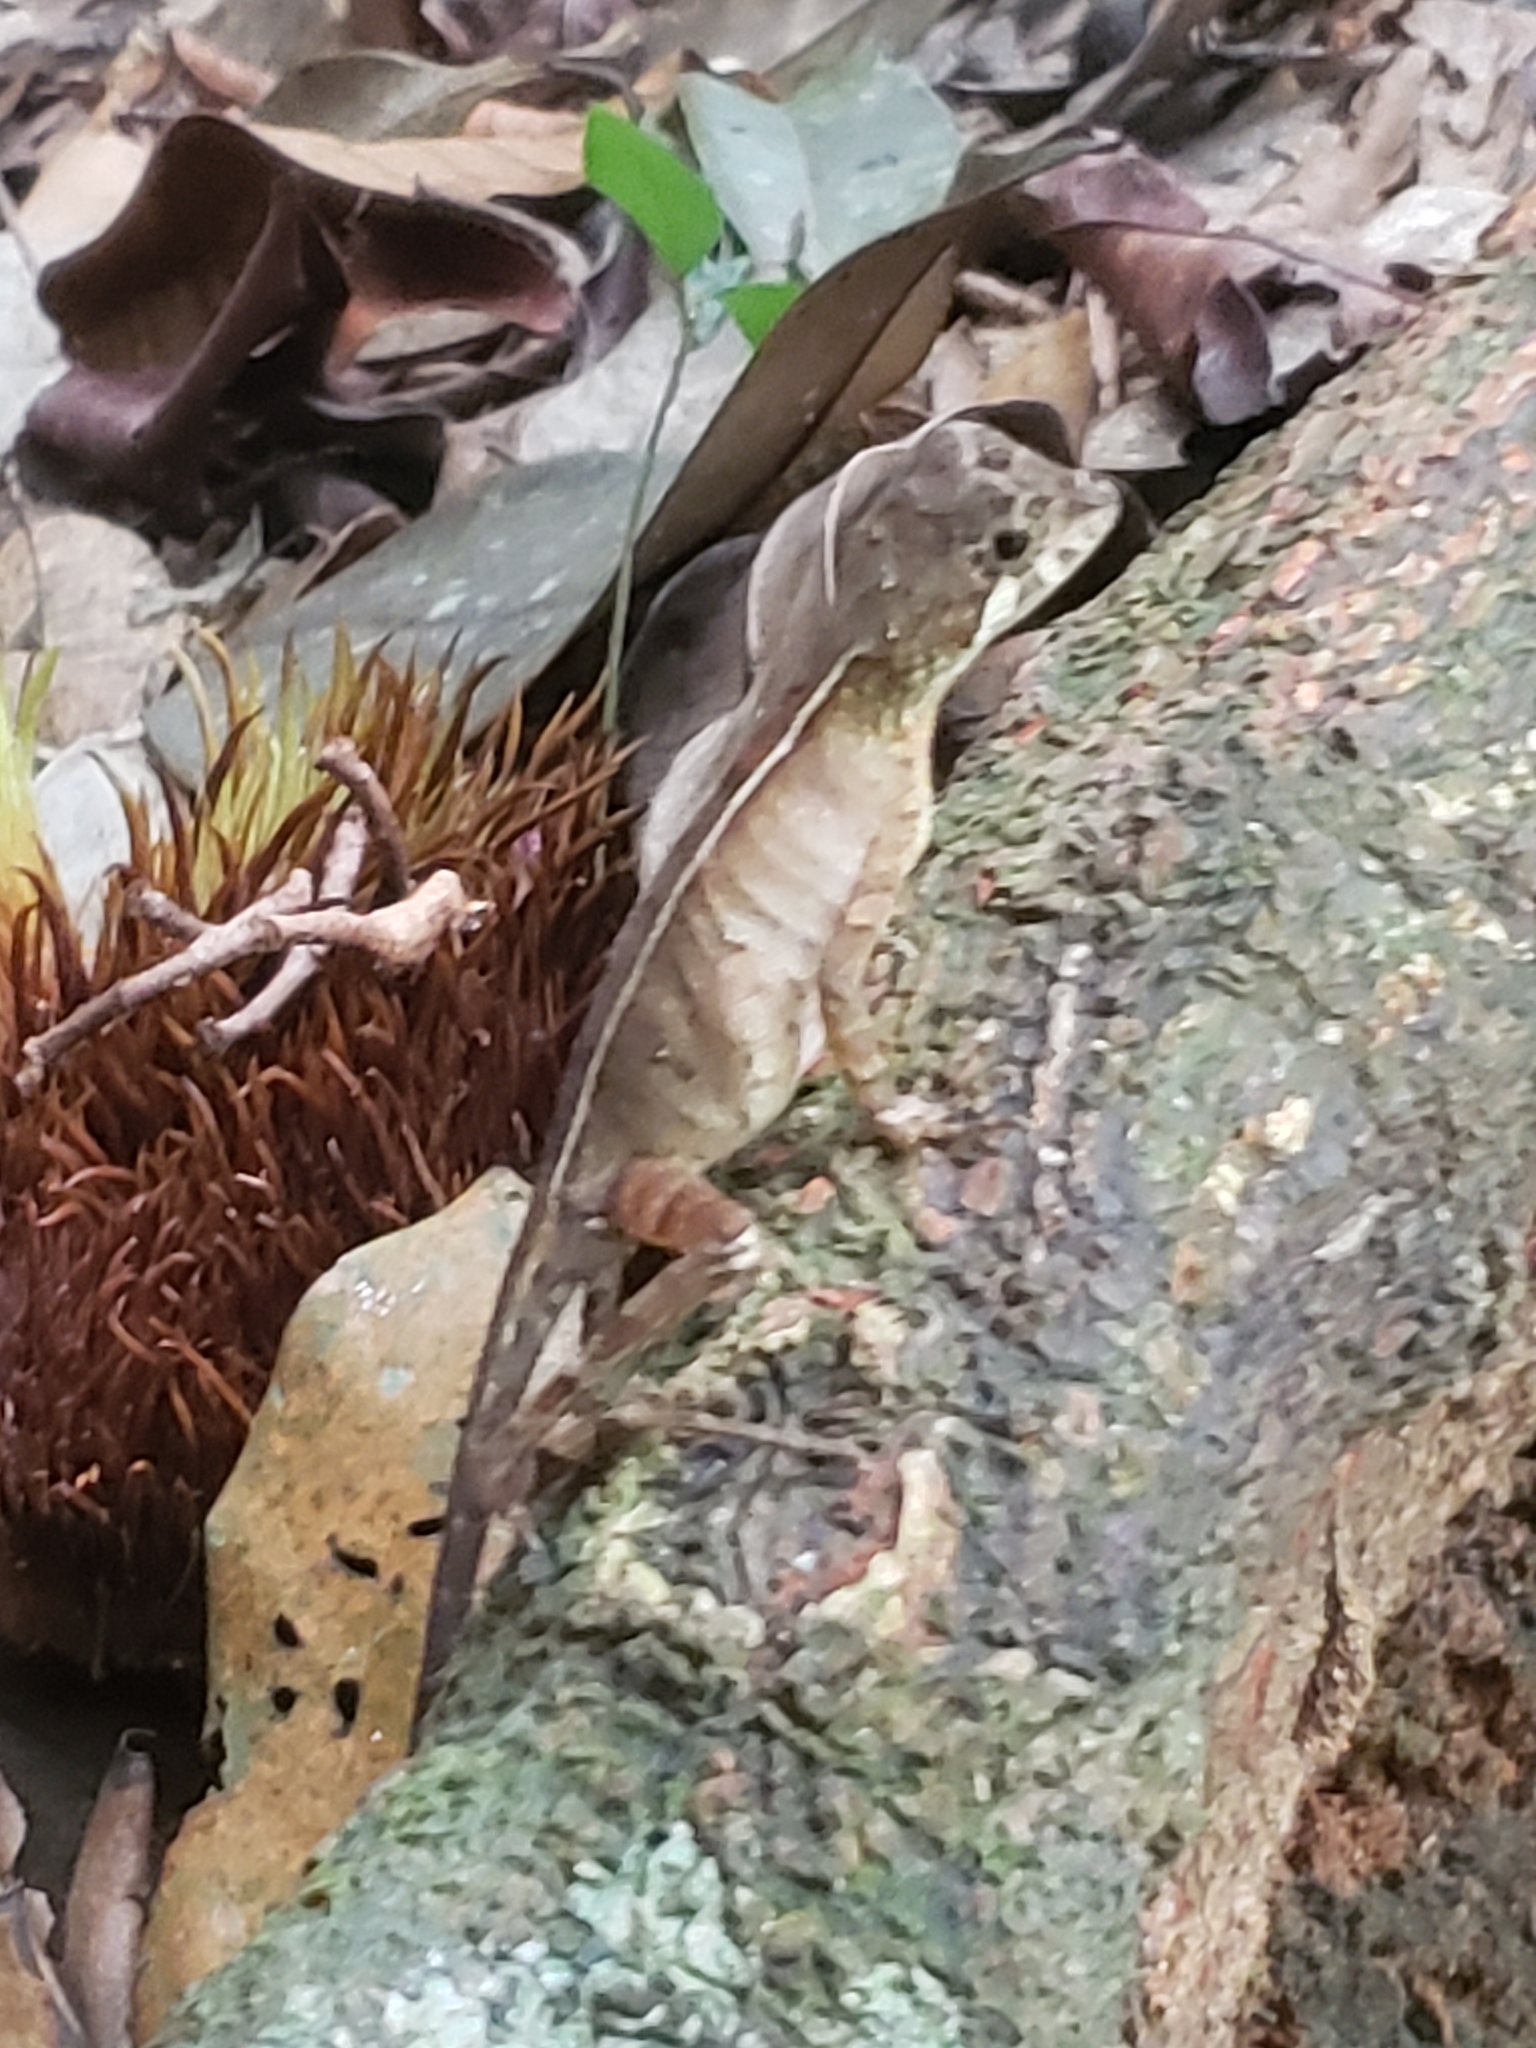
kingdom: Animalia
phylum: Chordata
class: Squamata
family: Agamidae
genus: Otocryptis
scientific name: Otocryptis wiegmanni
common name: Wiegmann's agama
